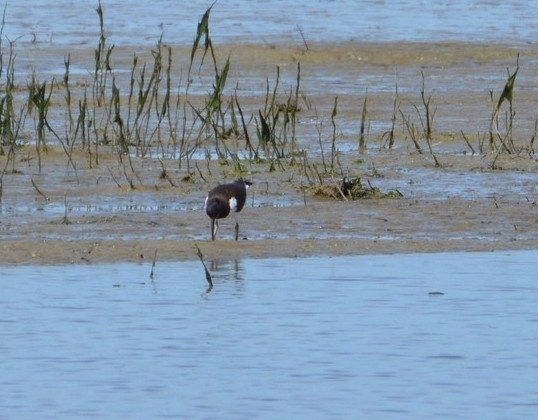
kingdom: Animalia
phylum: Chordata
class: Aves
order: Charadriiformes
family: Haematopodidae
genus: Haematopus
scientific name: Haematopus ostralegus
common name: Eurasian oystercatcher
